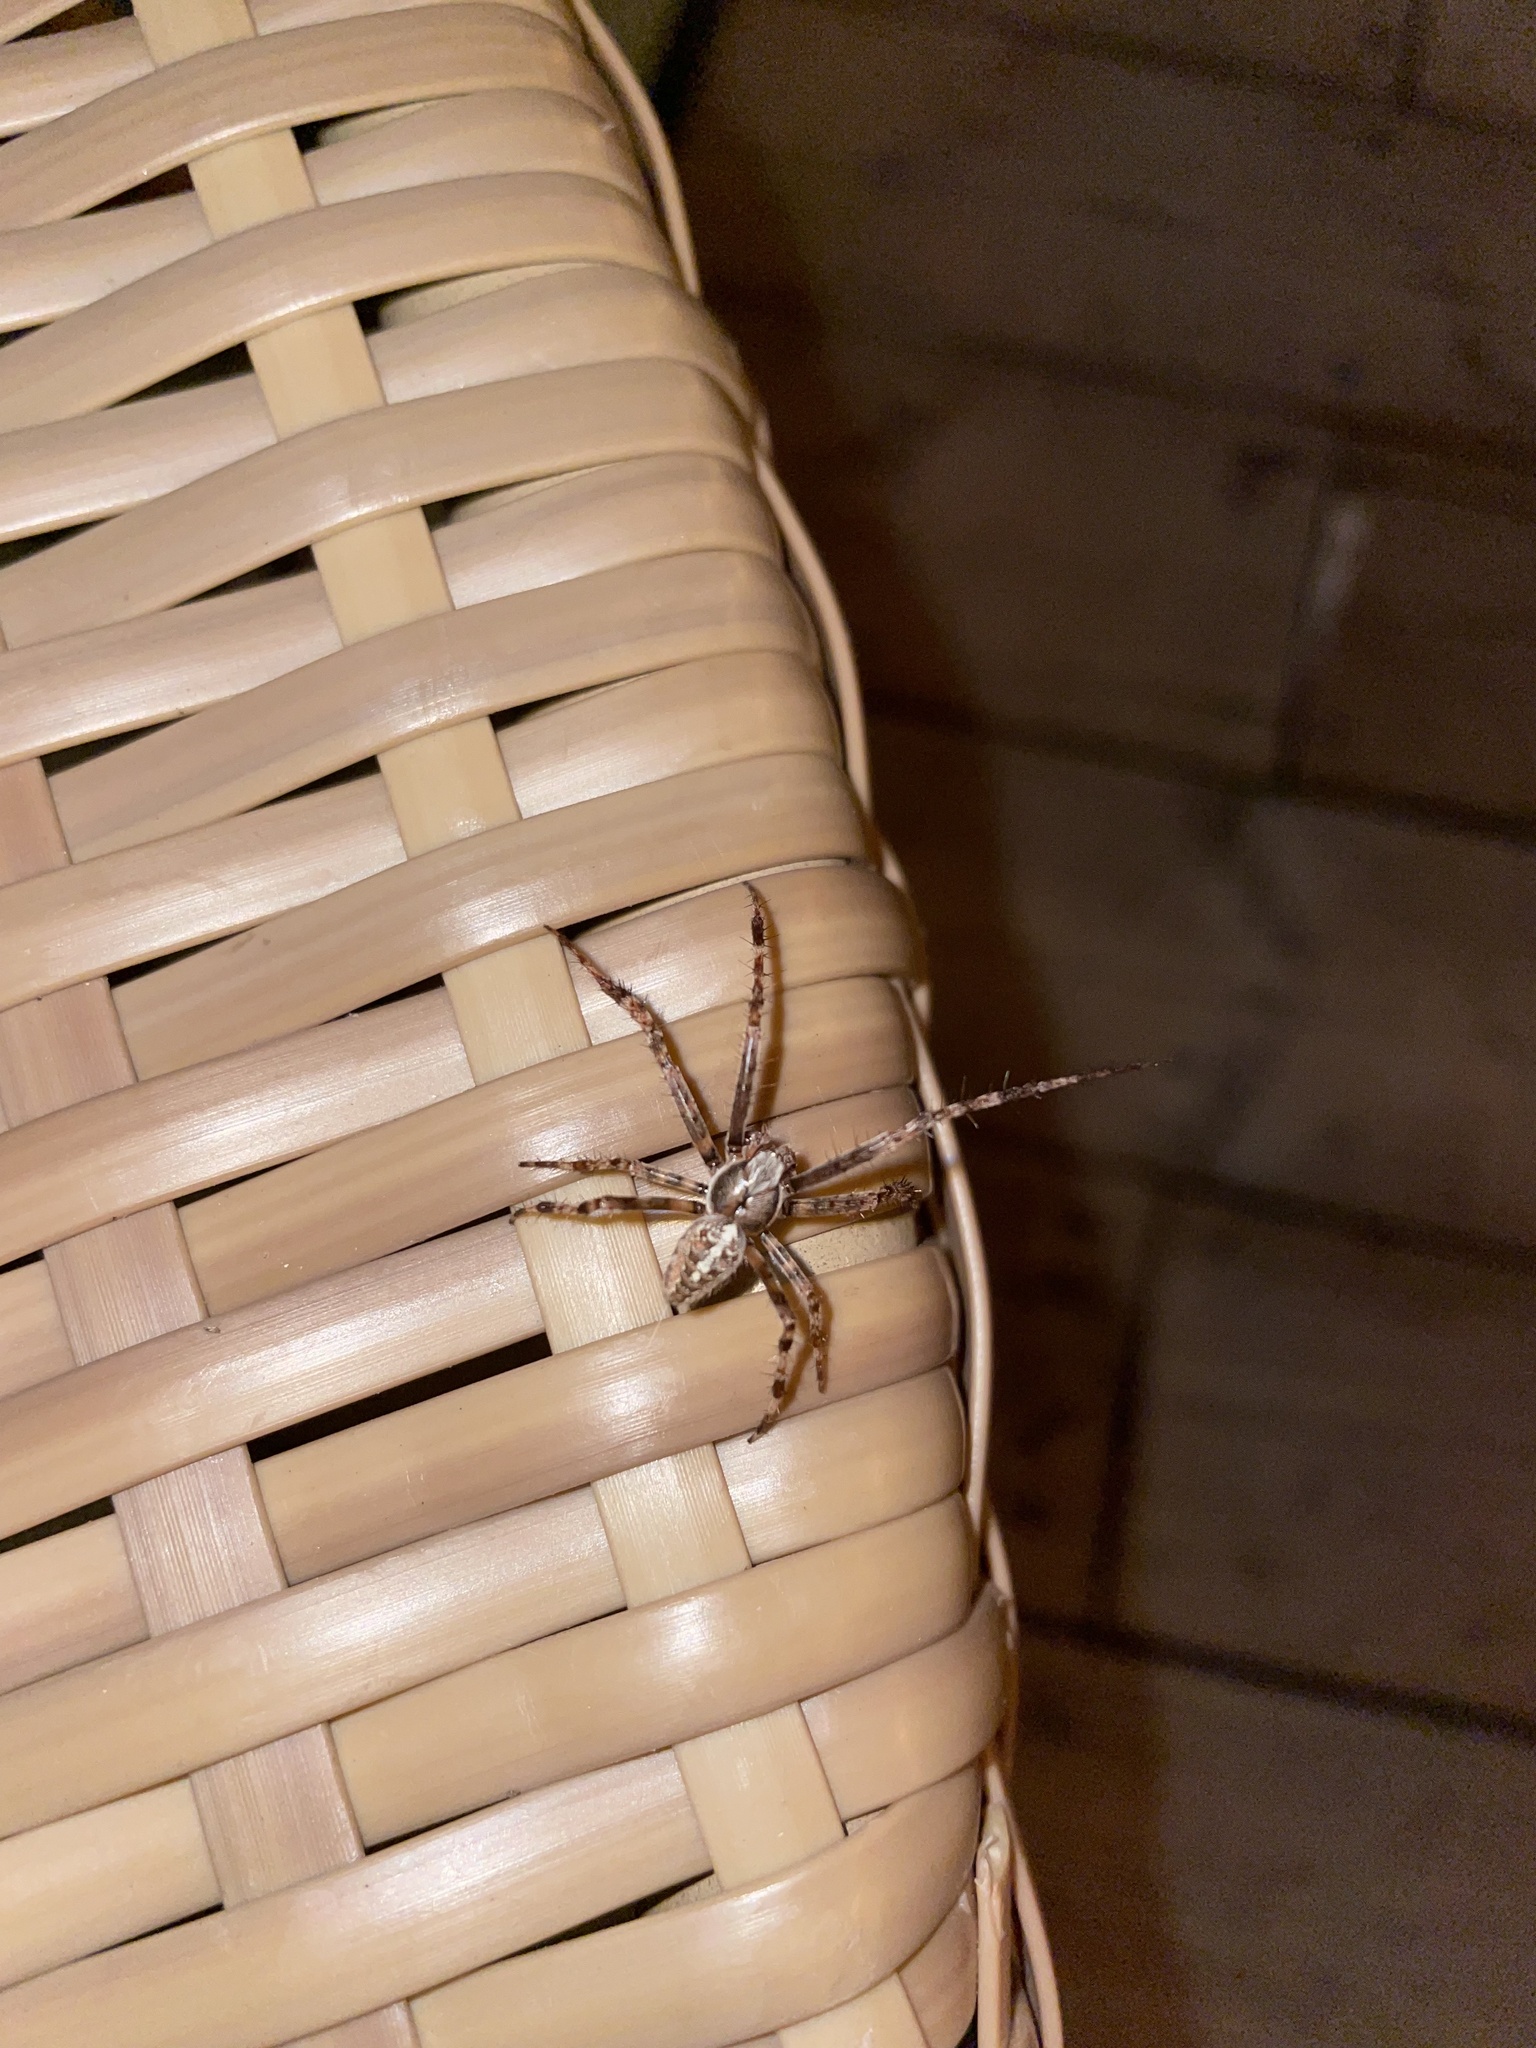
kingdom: Animalia
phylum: Arthropoda
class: Arachnida
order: Araneae
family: Araneidae
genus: Araneus
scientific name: Araneus diadematus
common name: Cross orbweaver
